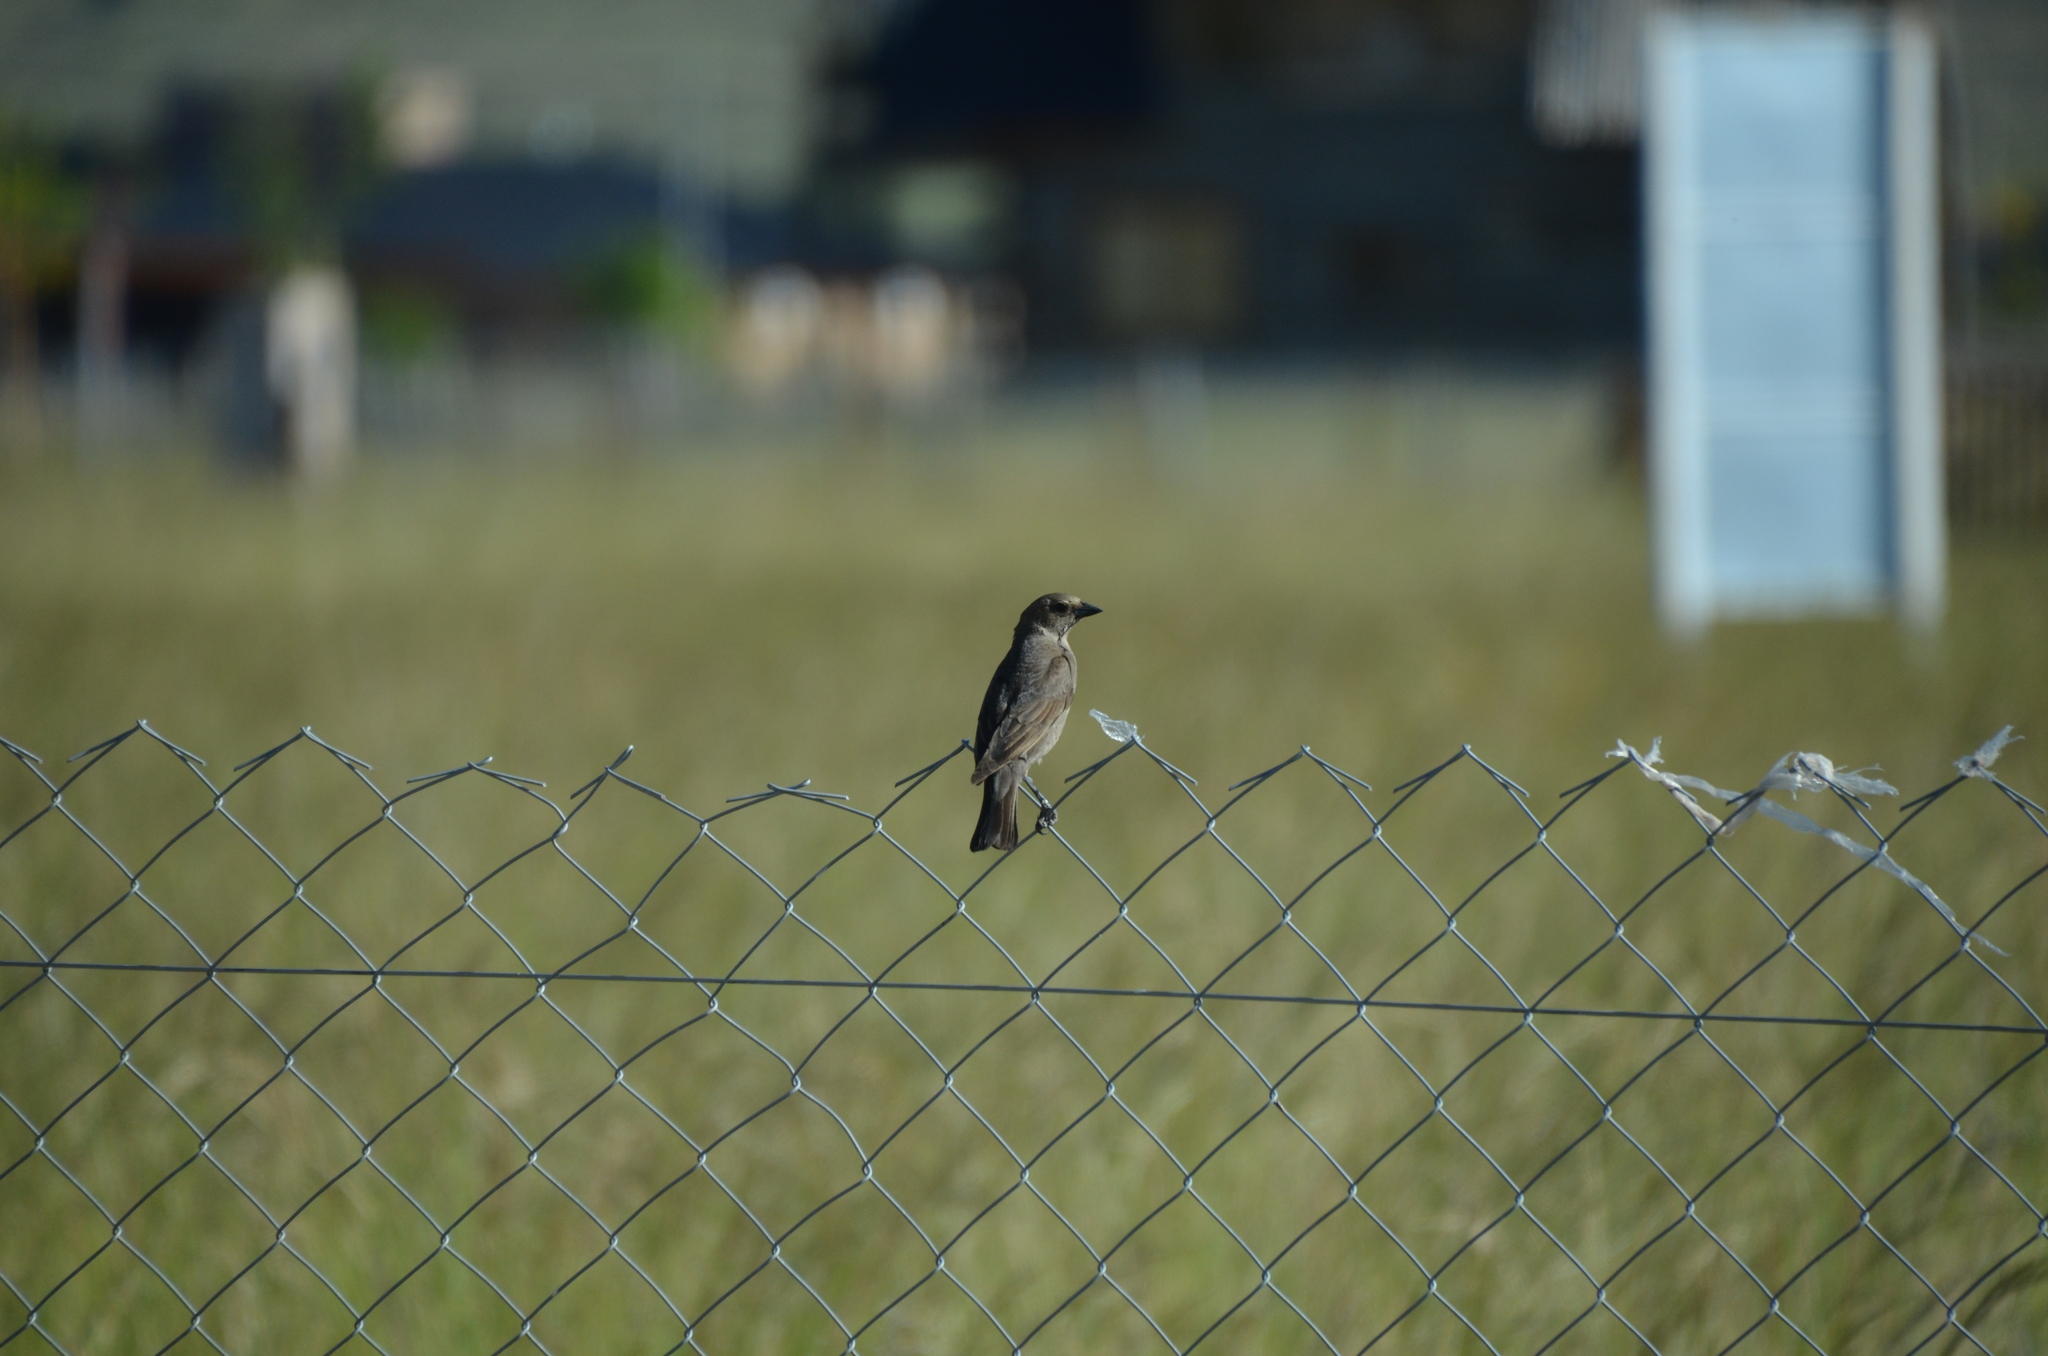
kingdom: Animalia
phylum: Chordata
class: Aves
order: Passeriformes
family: Icteridae
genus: Molothrus
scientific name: Molothrus bonariensis
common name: Shiny cowbird
